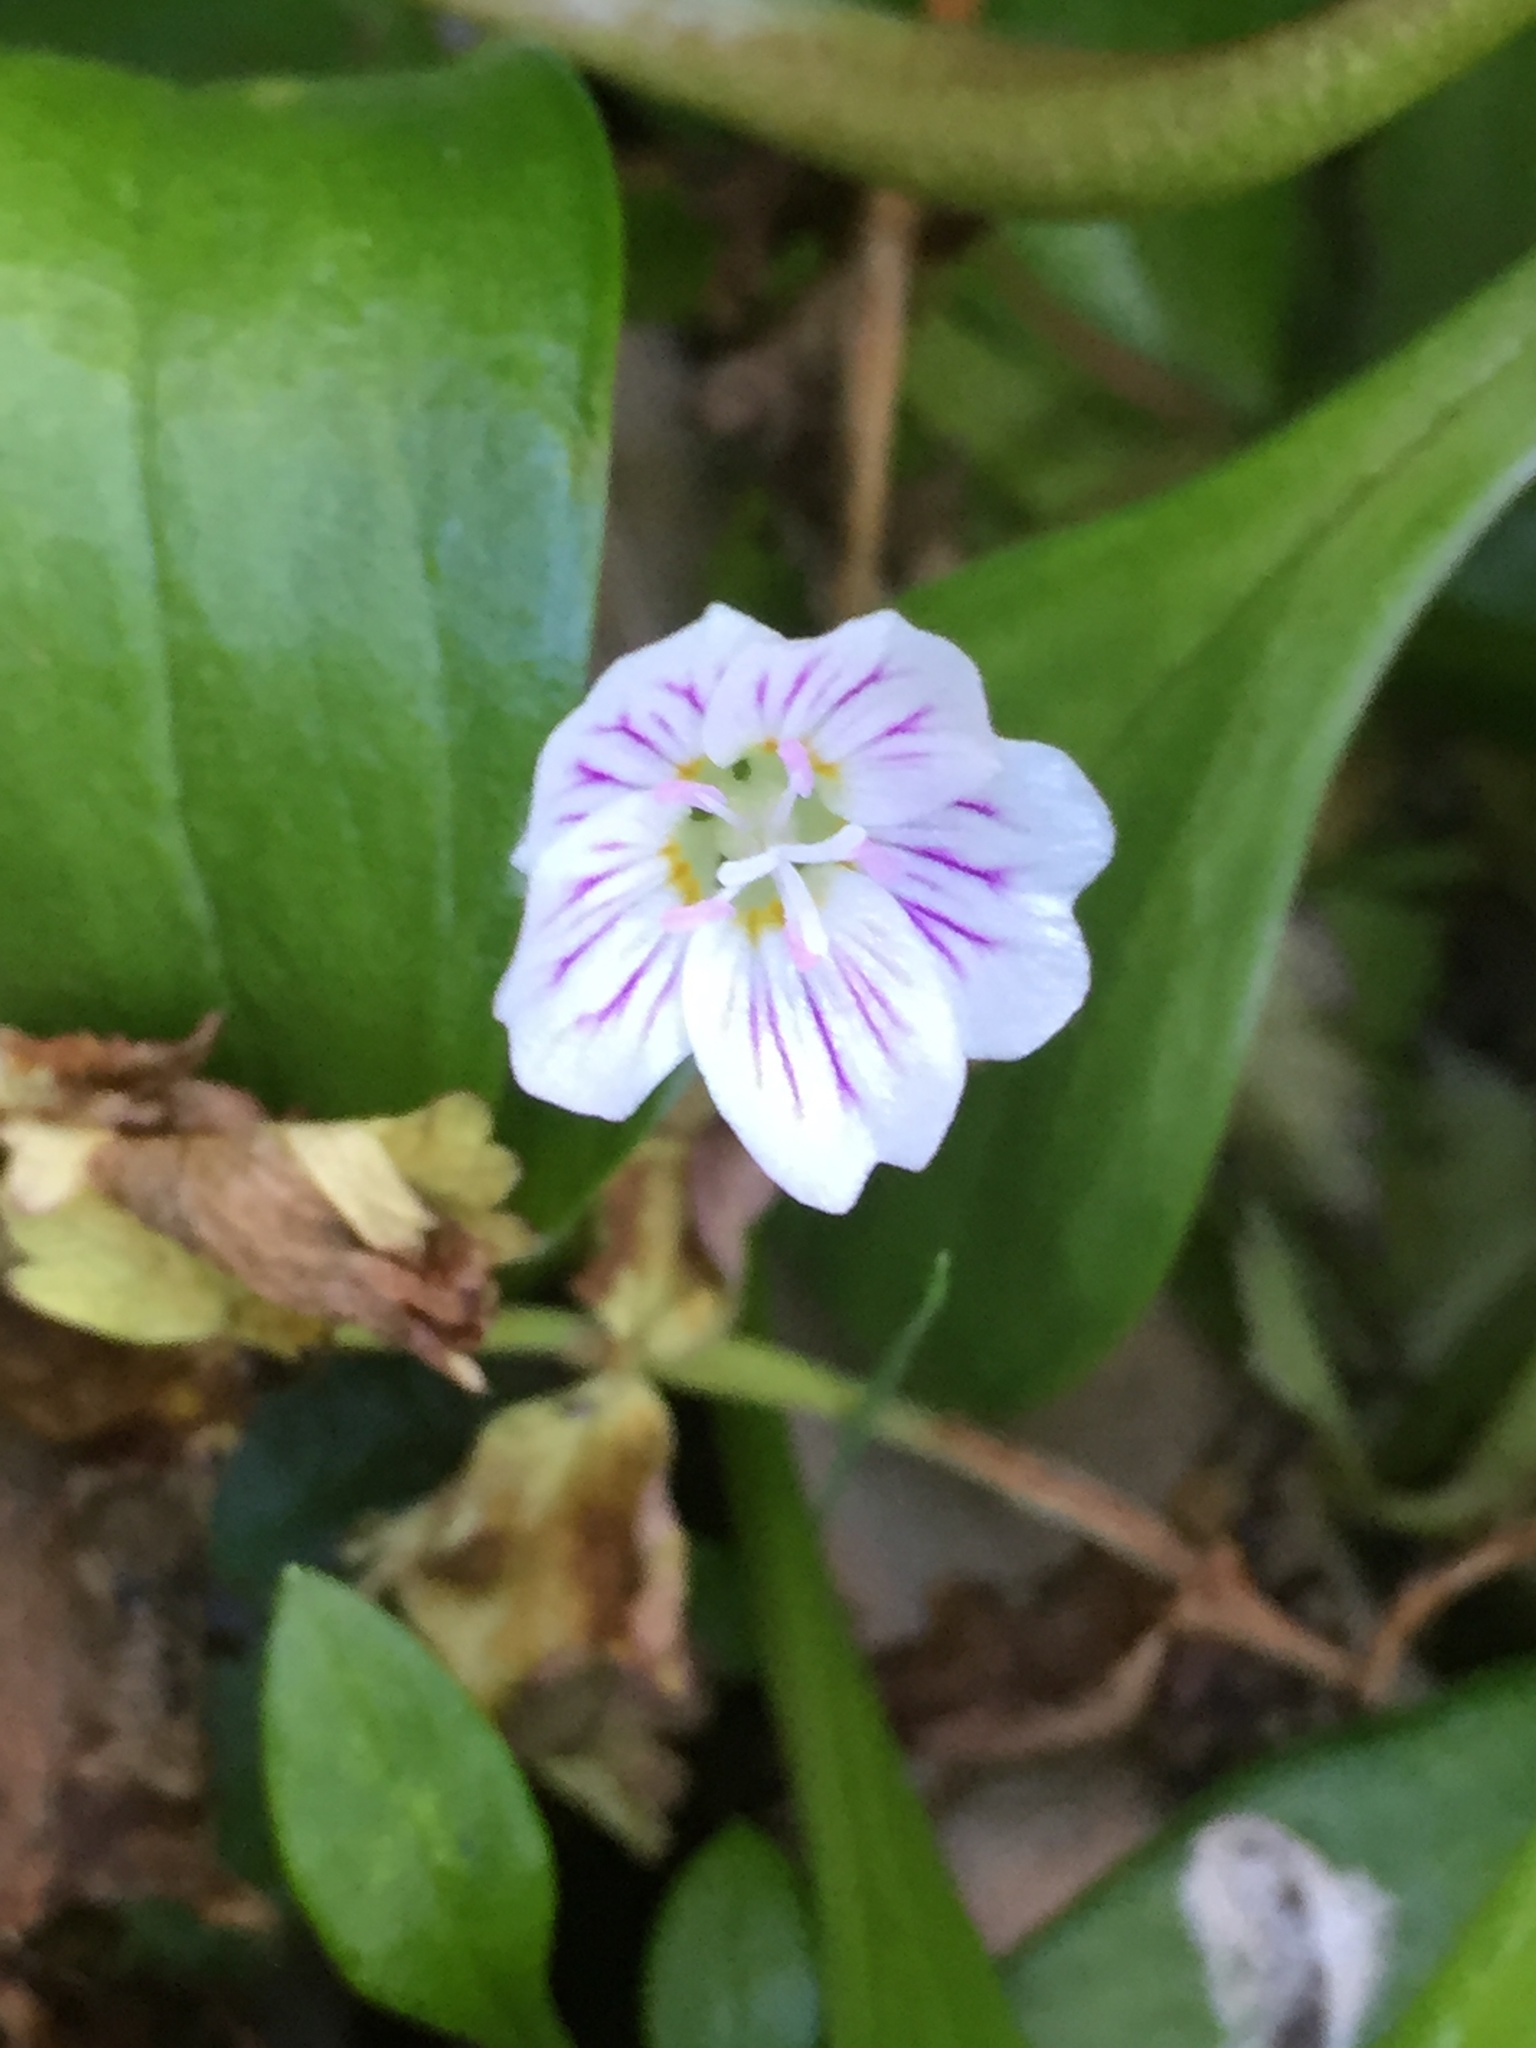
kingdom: Plantae
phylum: Tracheophyta
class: Magnoliopsida
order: Caryophyllales
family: Montiaceae
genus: Claytonia
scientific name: Claytonia sibirica
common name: Pink purslane
